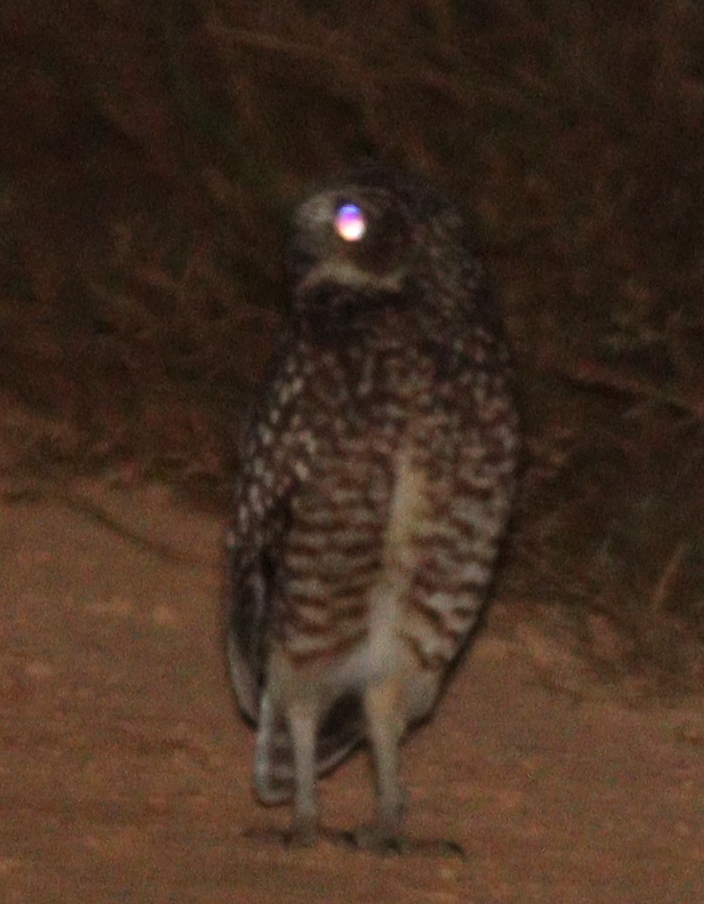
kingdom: Animalia
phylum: Chordata
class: Aves
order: Strigiformes
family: Strigidae
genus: Athene
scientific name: Athene cunicularia
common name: Burrowing owl
